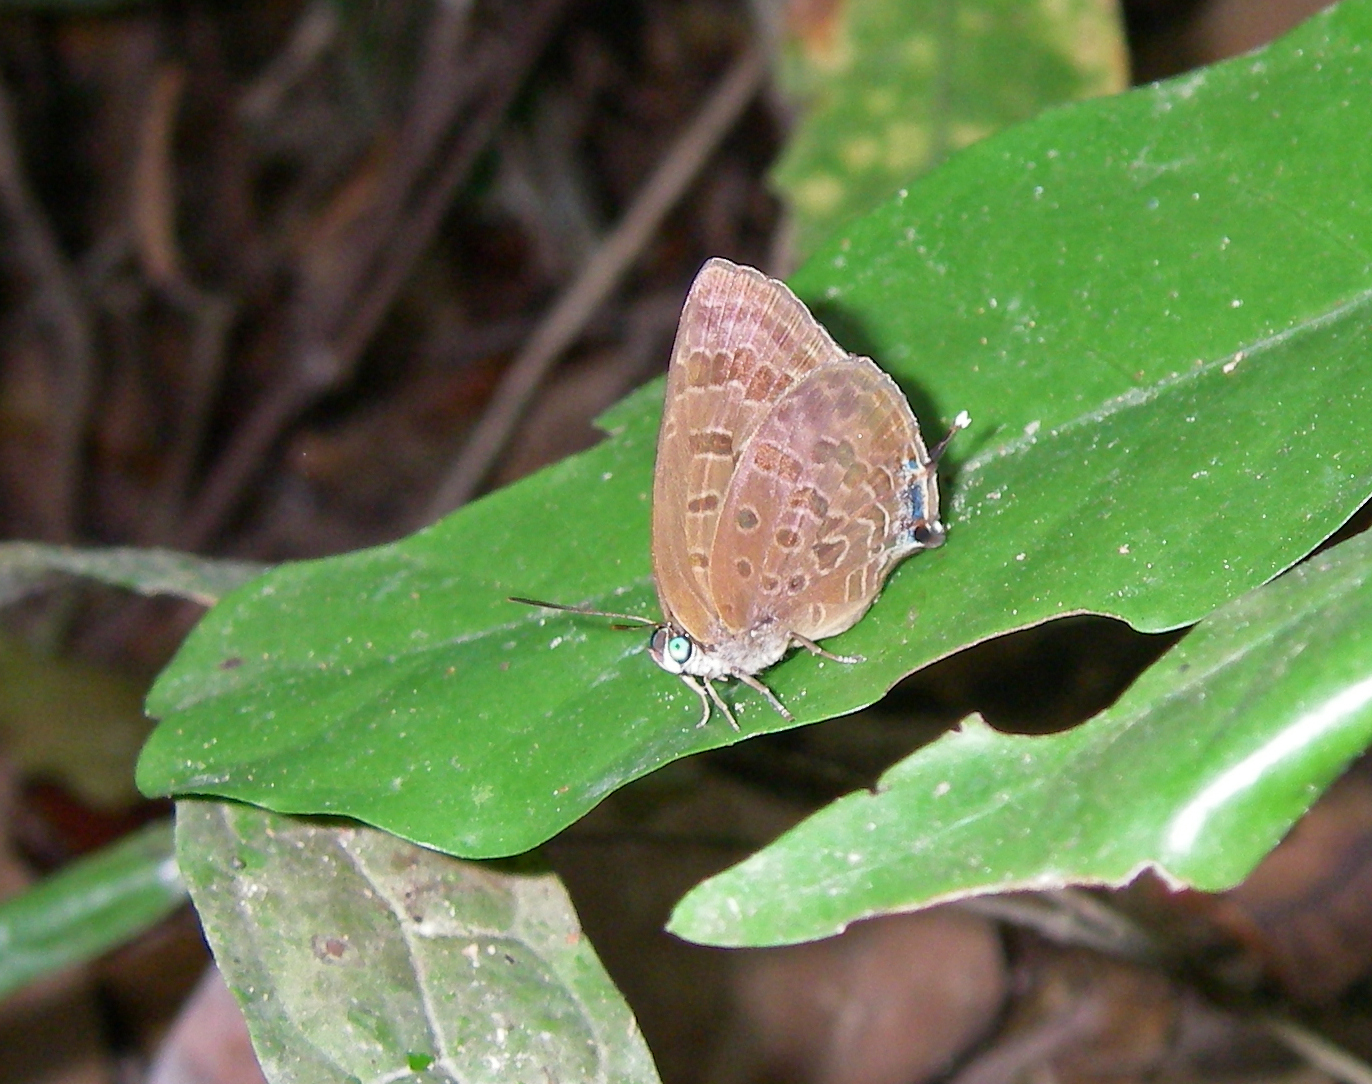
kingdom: Animalia
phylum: Arthropoda
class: Insecta
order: Lepidoptera
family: Lycaenidae
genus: Arhopala
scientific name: Arhopala
